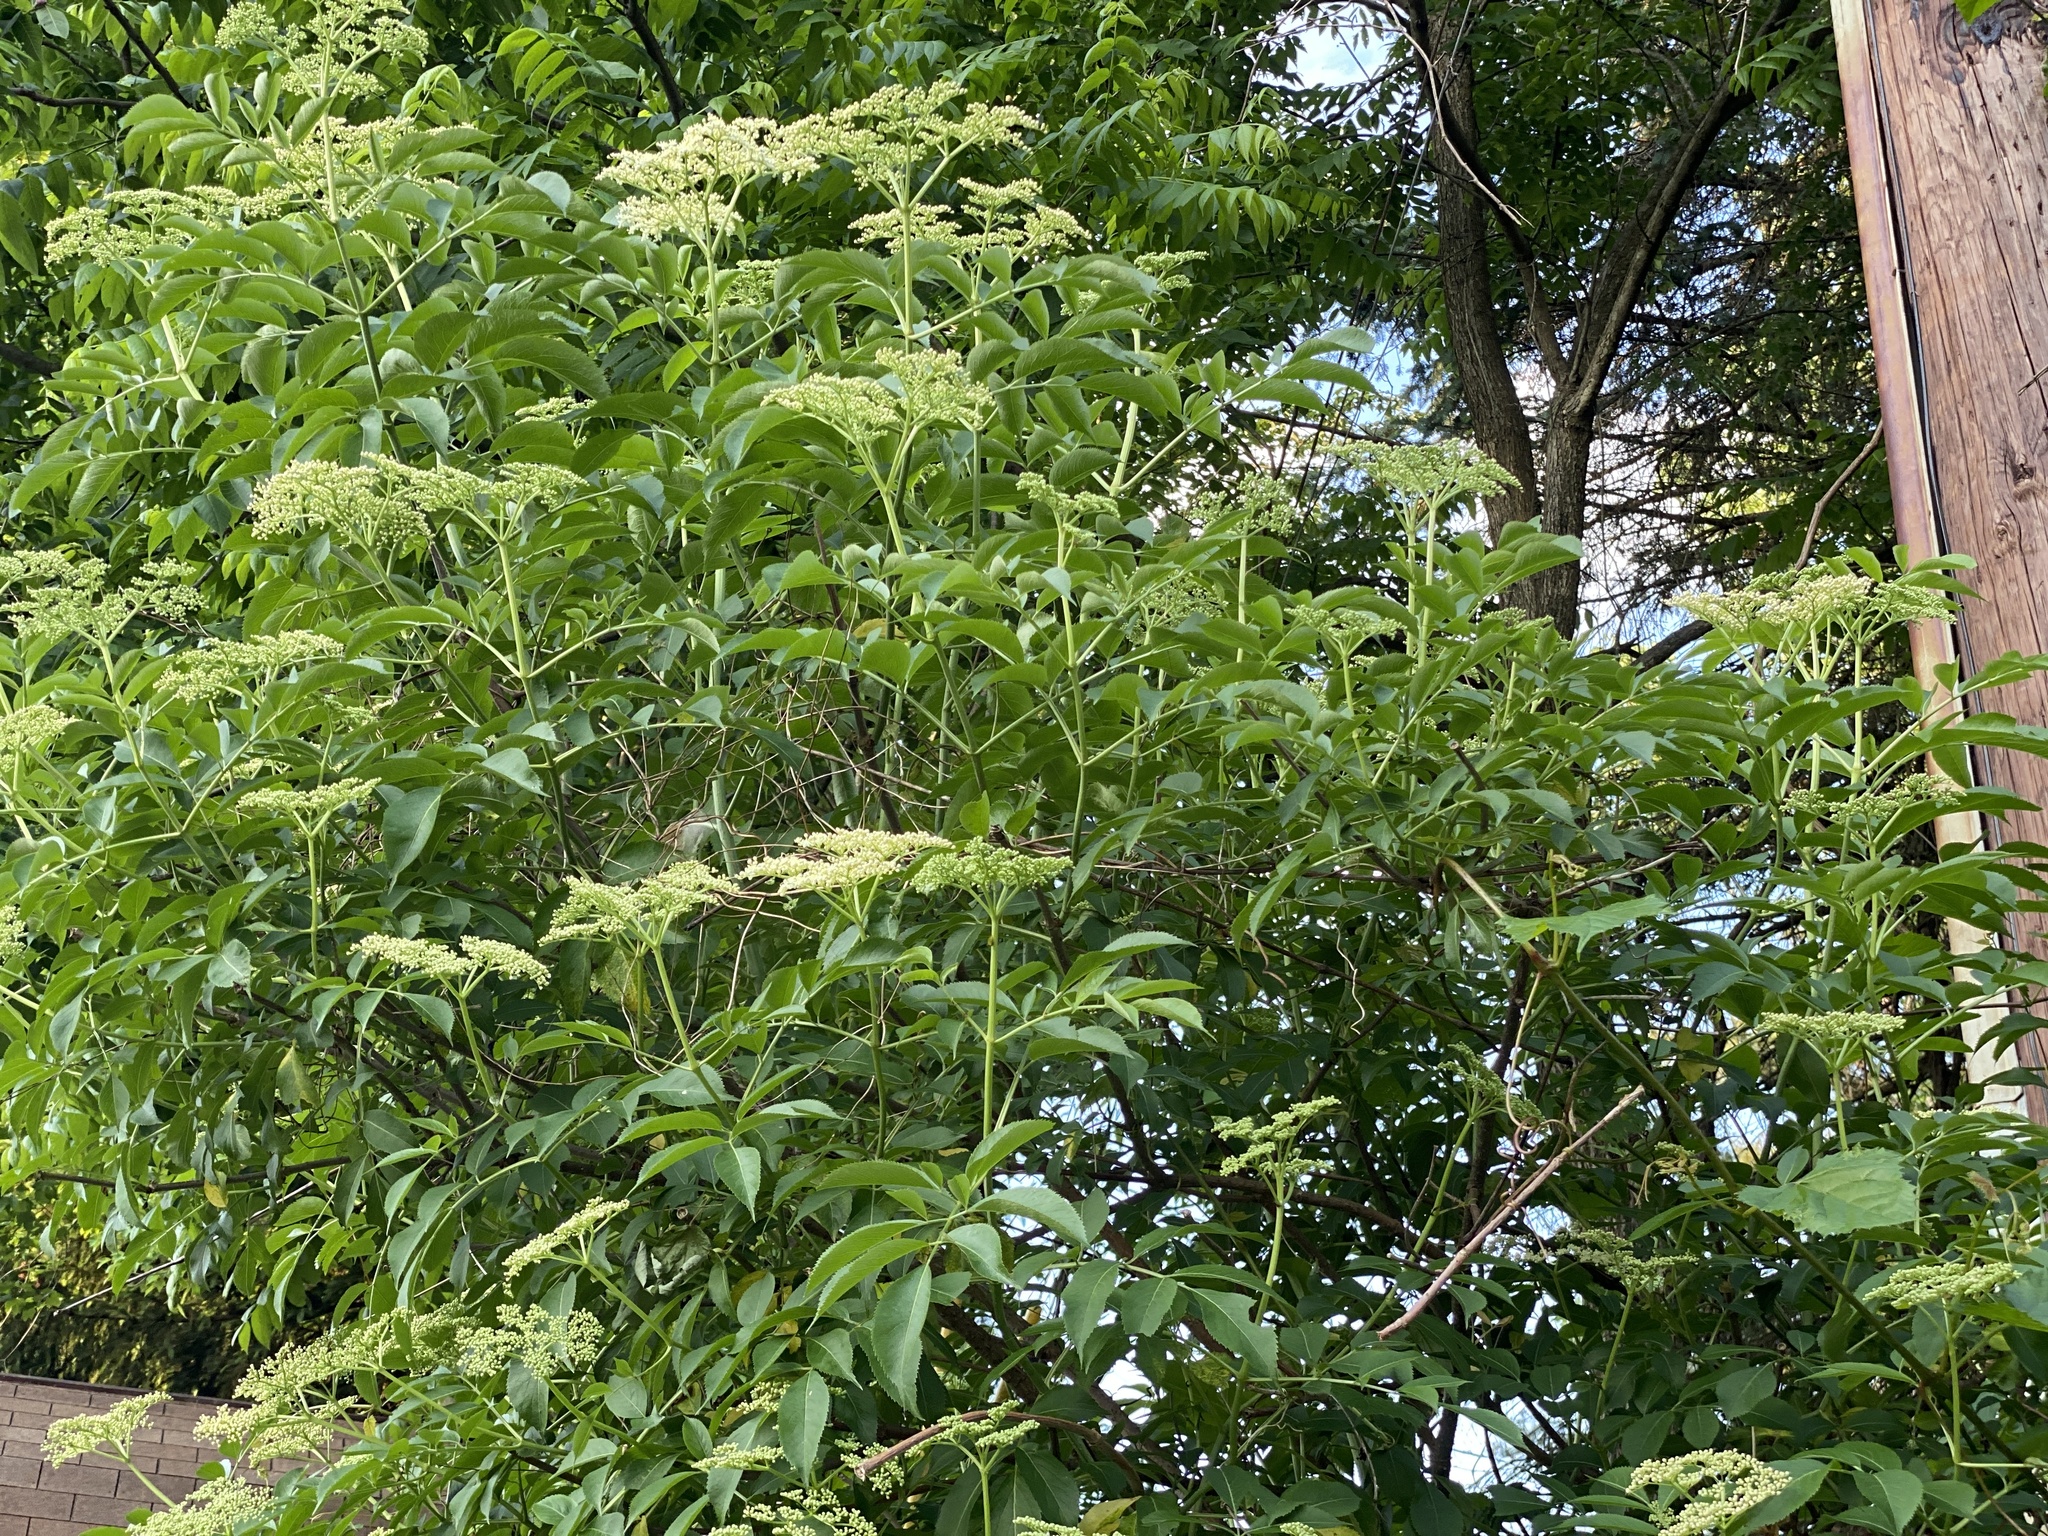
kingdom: Plantae
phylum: Tracheophyta
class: Magnoliopsida
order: Dipsacales
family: Viburnaceae
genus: Sambucus
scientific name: Sambucus canadensis
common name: American elder
